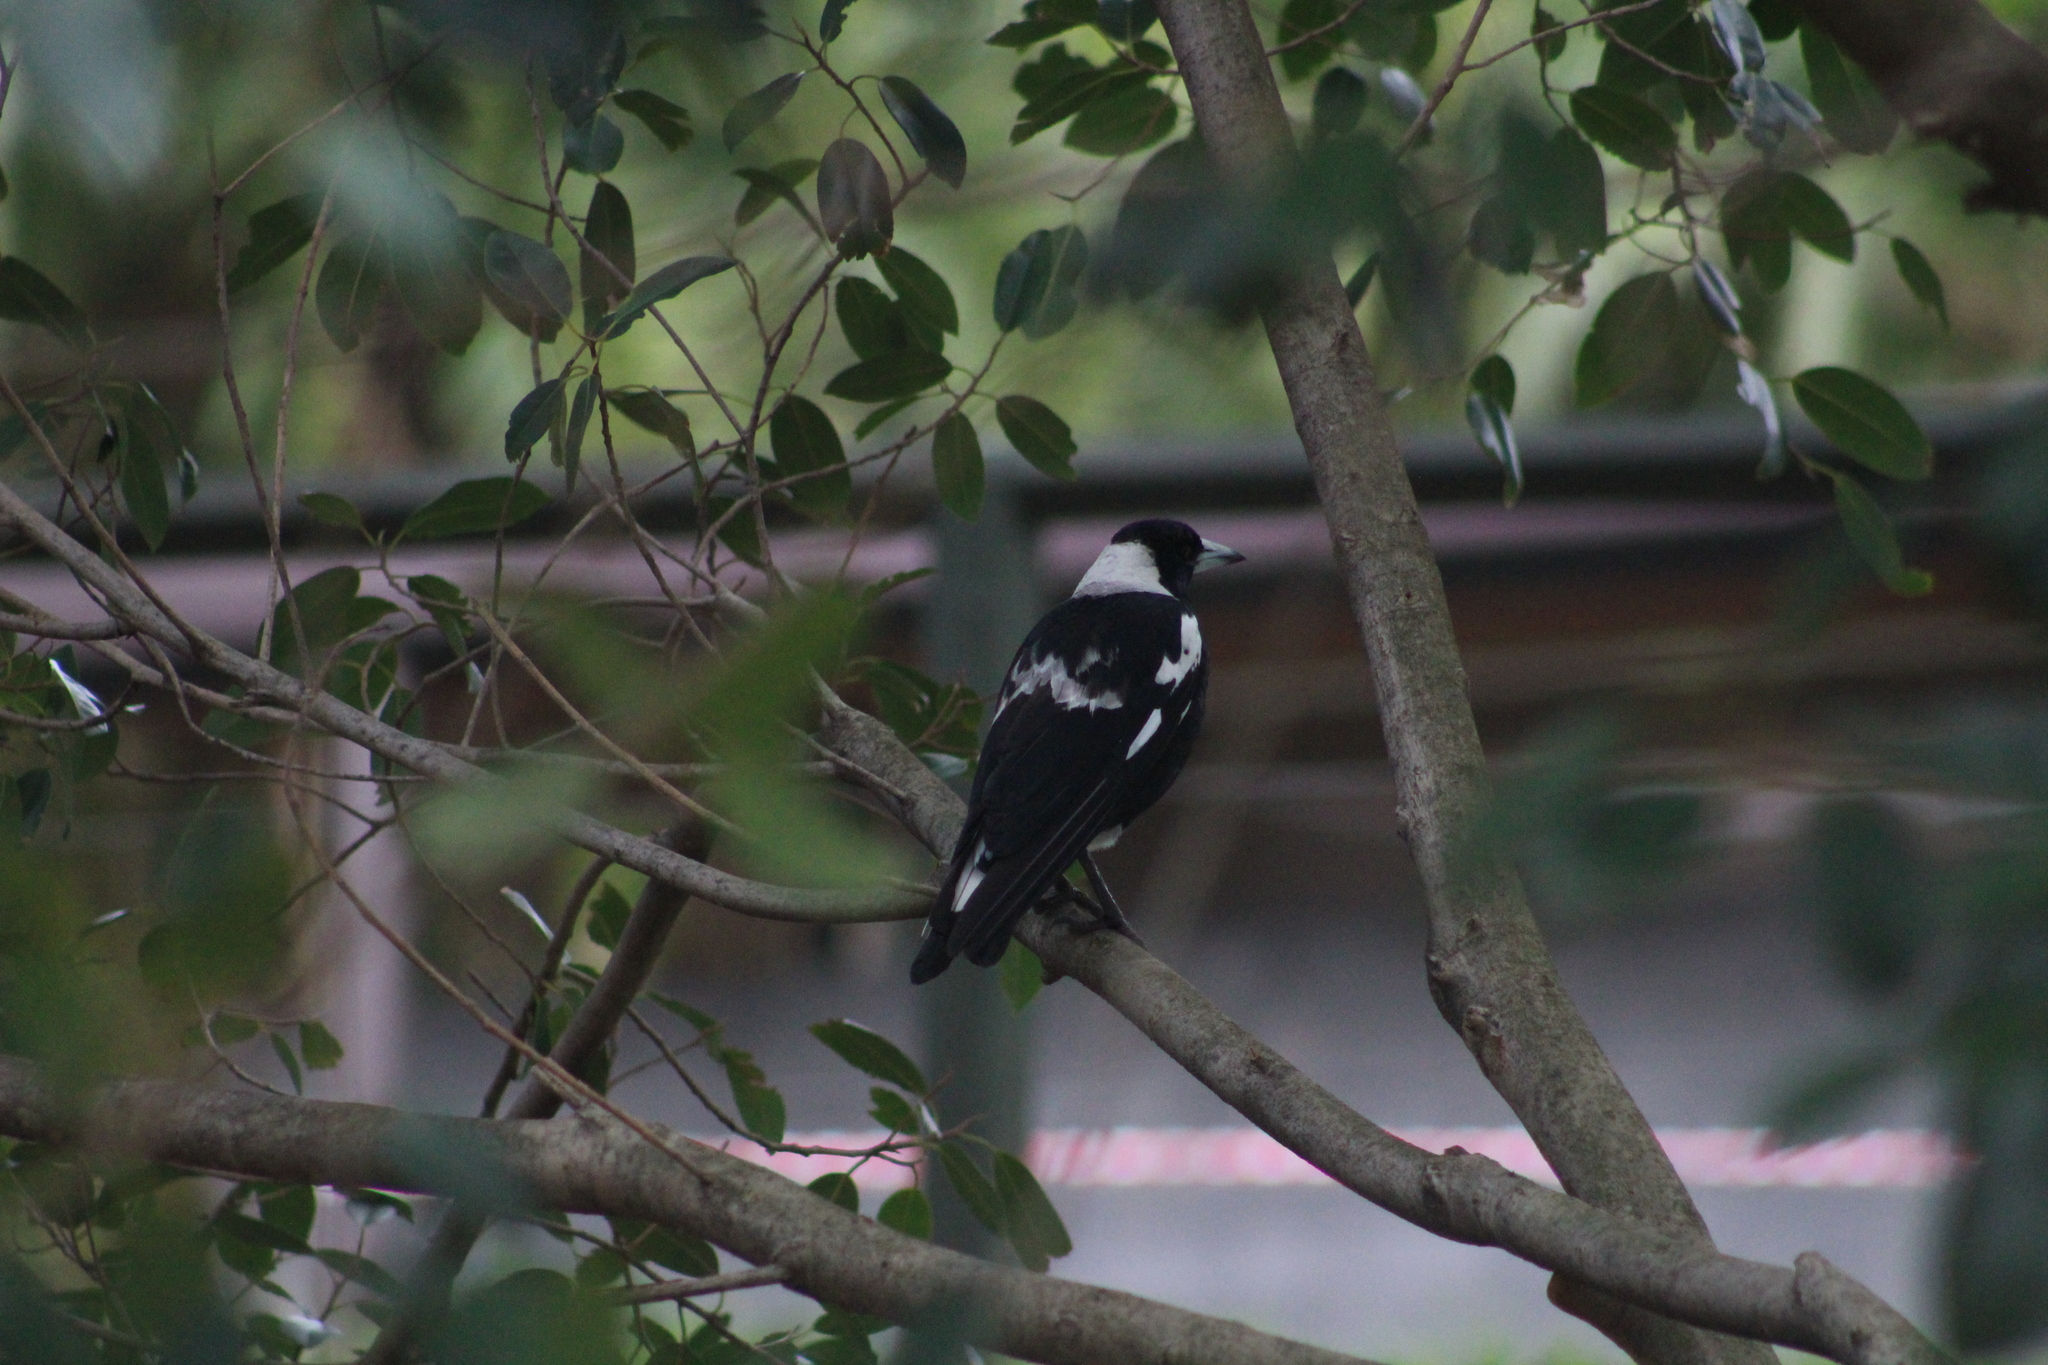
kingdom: Animalia
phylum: Chordata
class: Aves
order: Passeriformes
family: Cracticidae
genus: Gymnorhina
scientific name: Gymnorhina tibicen
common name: Australian magpie
